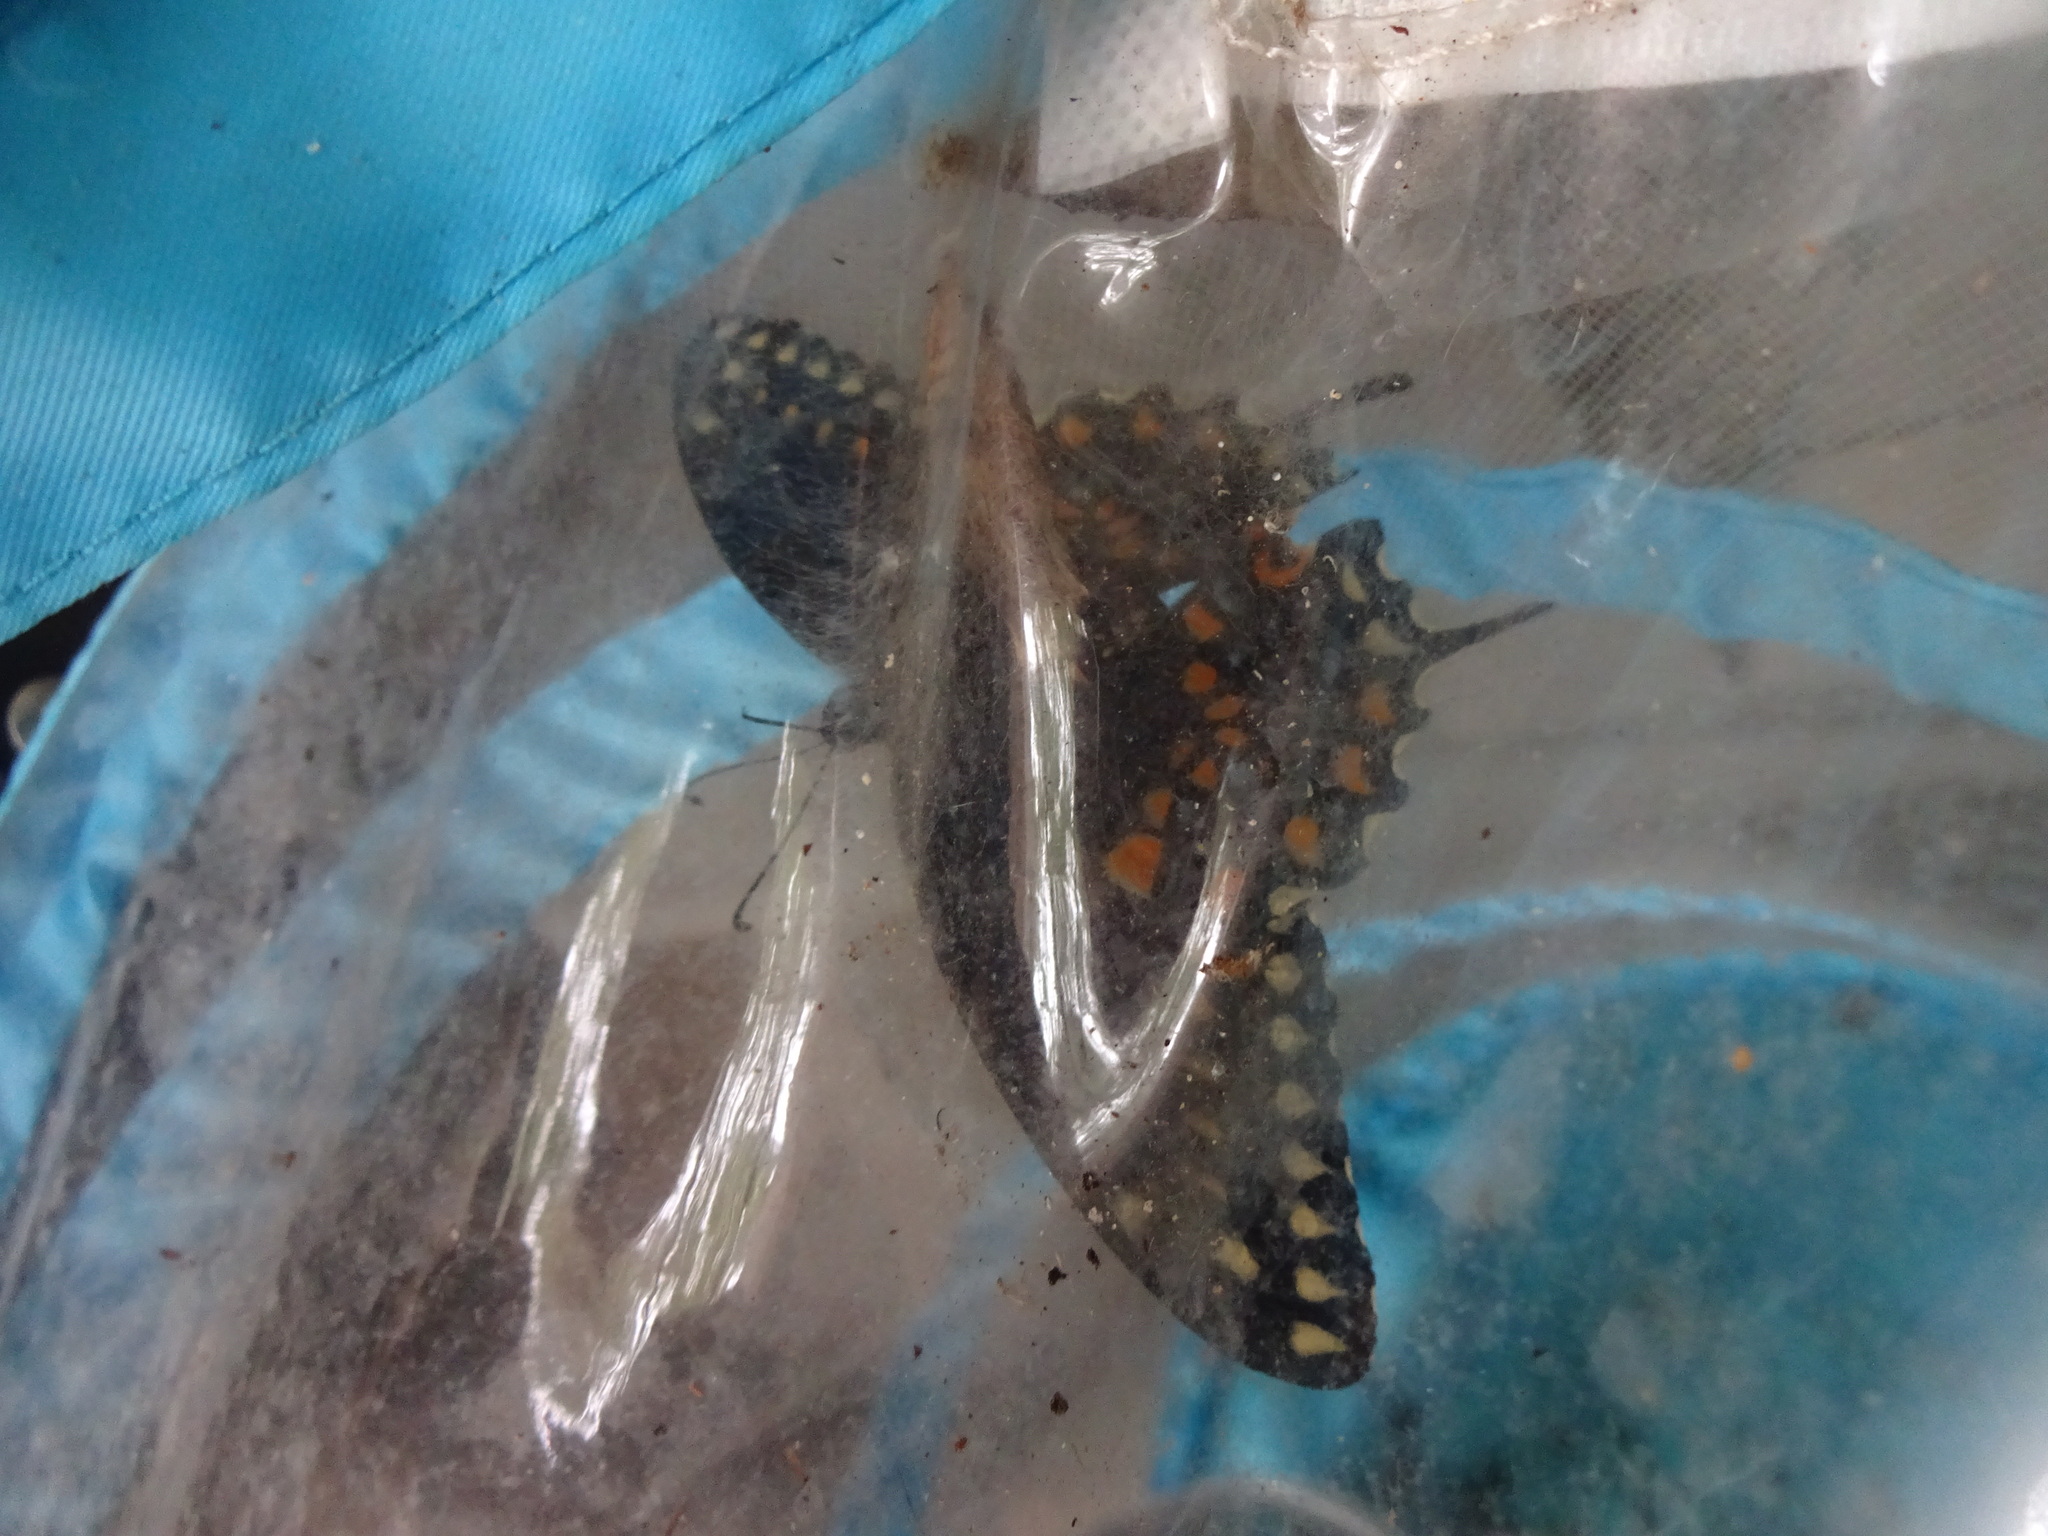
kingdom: Animalia
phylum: Arthropoda
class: Insecta
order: Lepidoptera
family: Papilionidae
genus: Papilio
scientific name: Papilio polyxenes
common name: Black swallowtail
